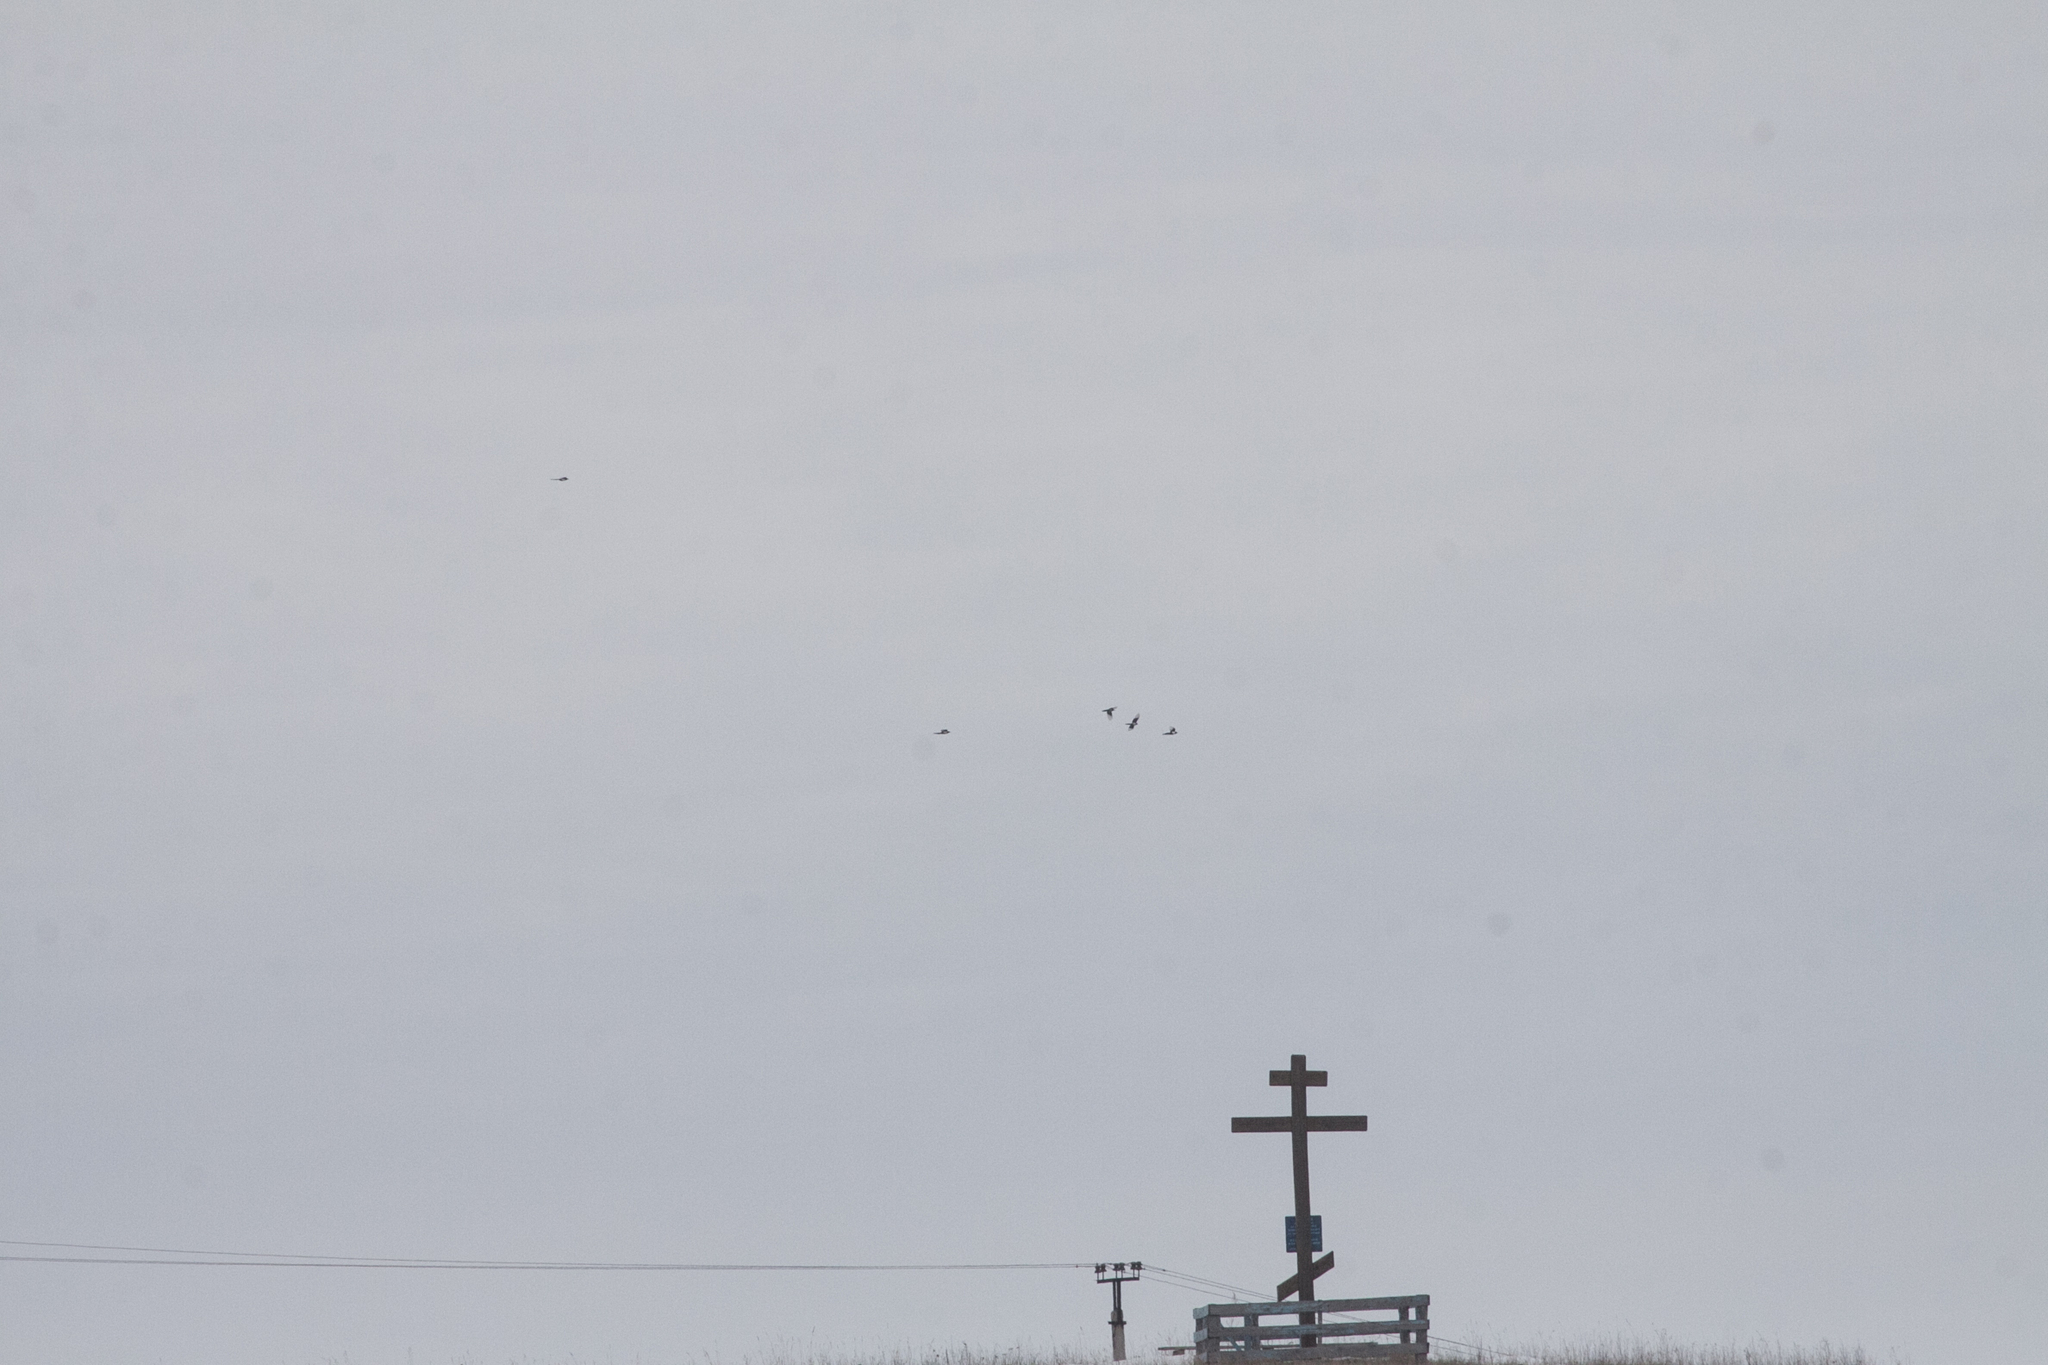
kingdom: Animalia
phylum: Chordata
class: Aves
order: Passeriformes
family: Corvidae
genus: Pica
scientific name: Pica pica
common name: Eurasian magpie
